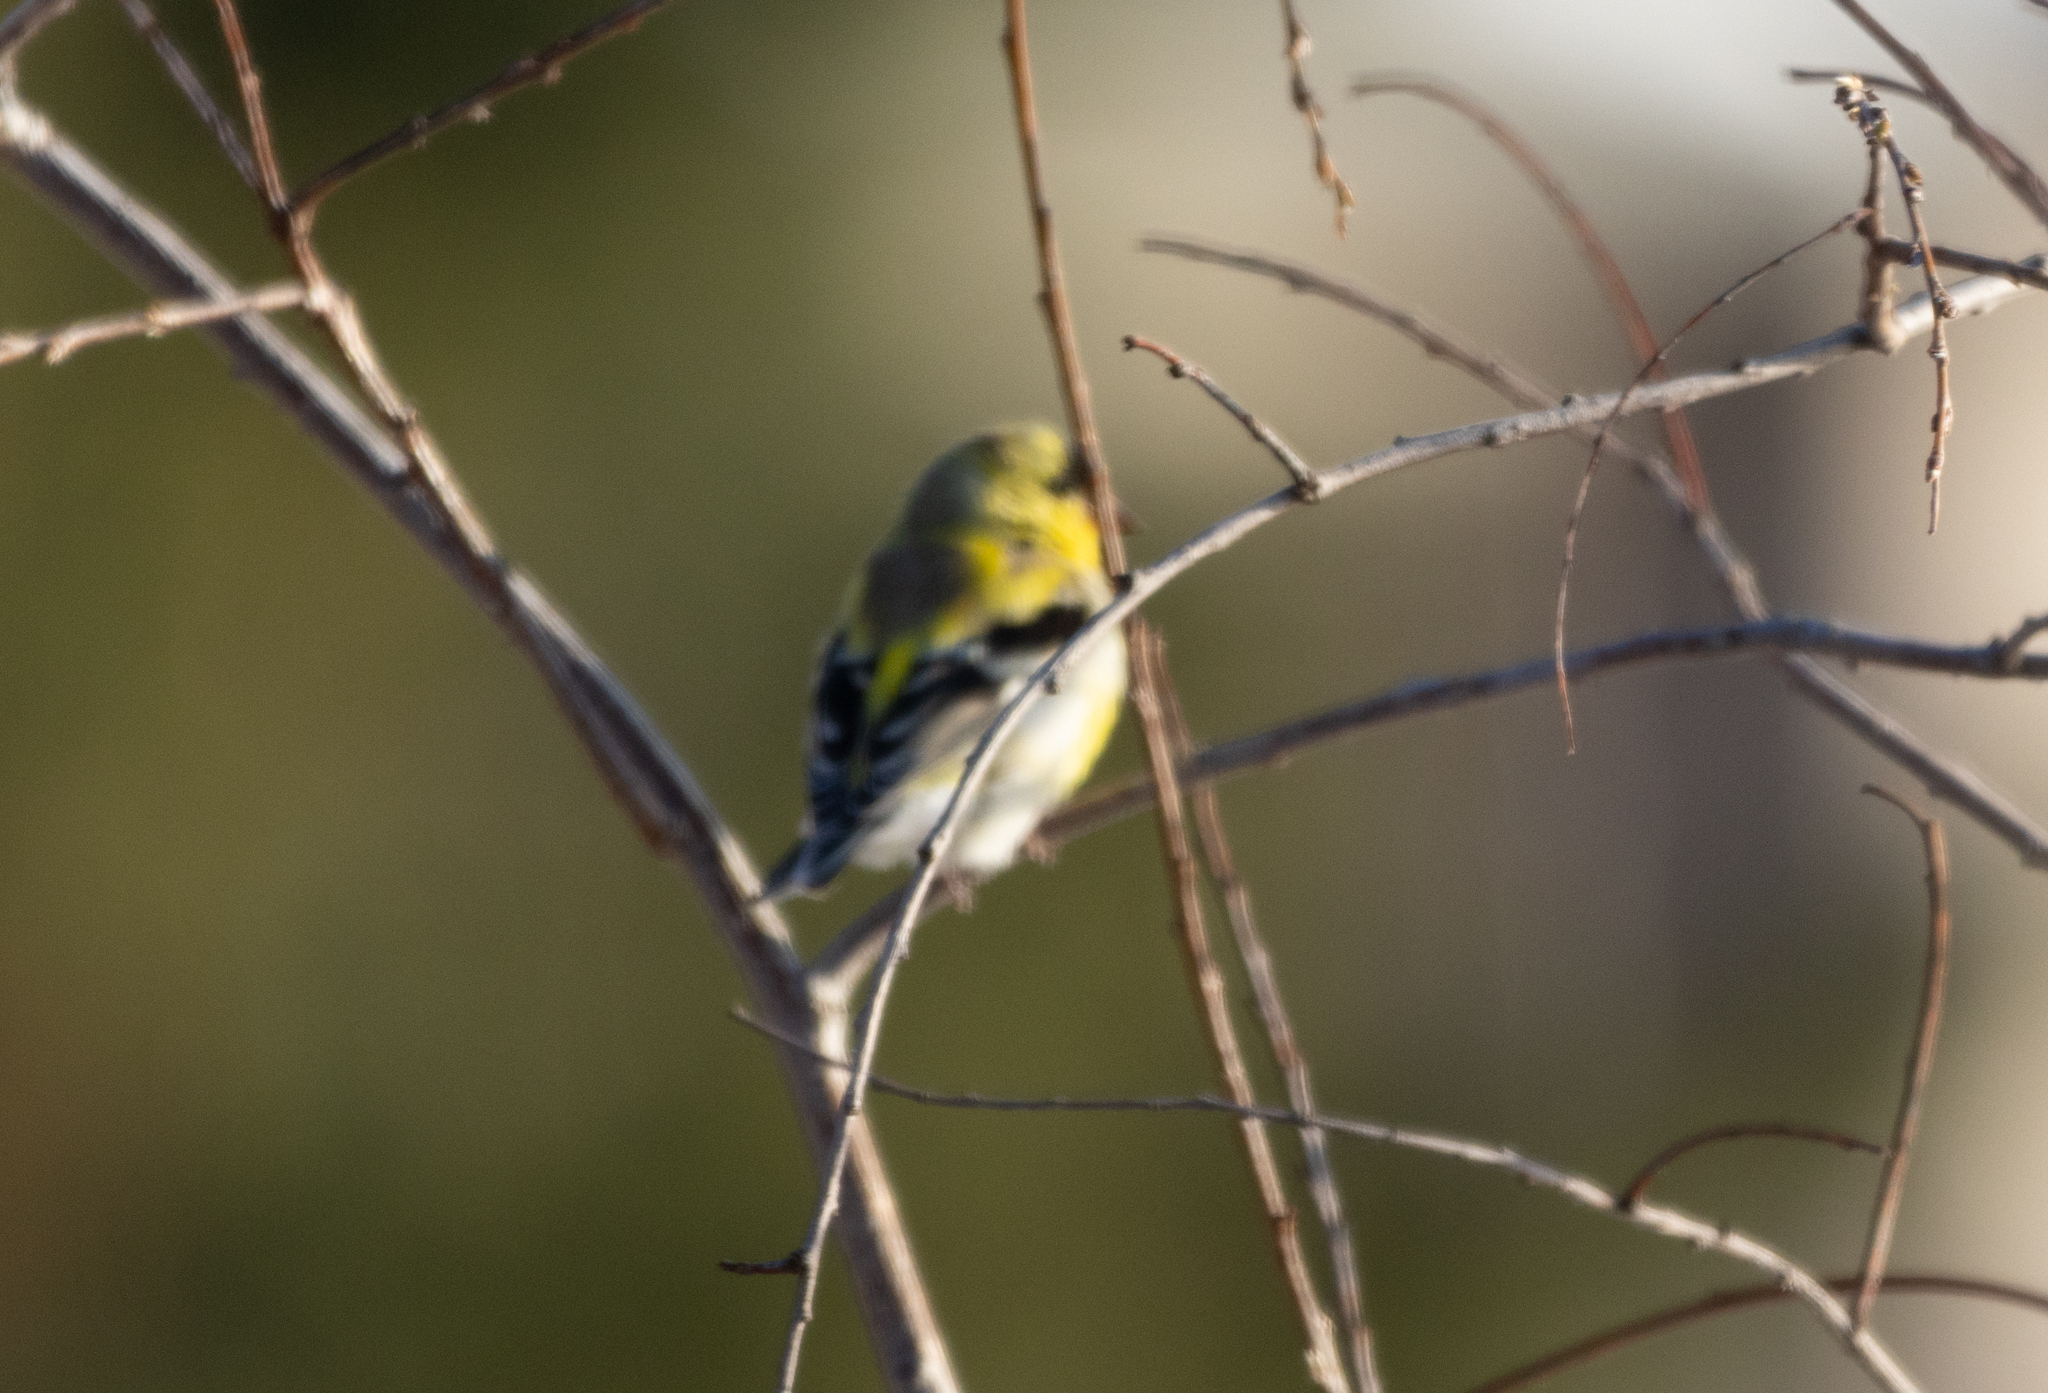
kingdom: Animalia
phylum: Chordata
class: Aves
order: Passeriformes
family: Fringillidae
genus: Spinus
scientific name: Spinus tristis
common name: American goldfinch
